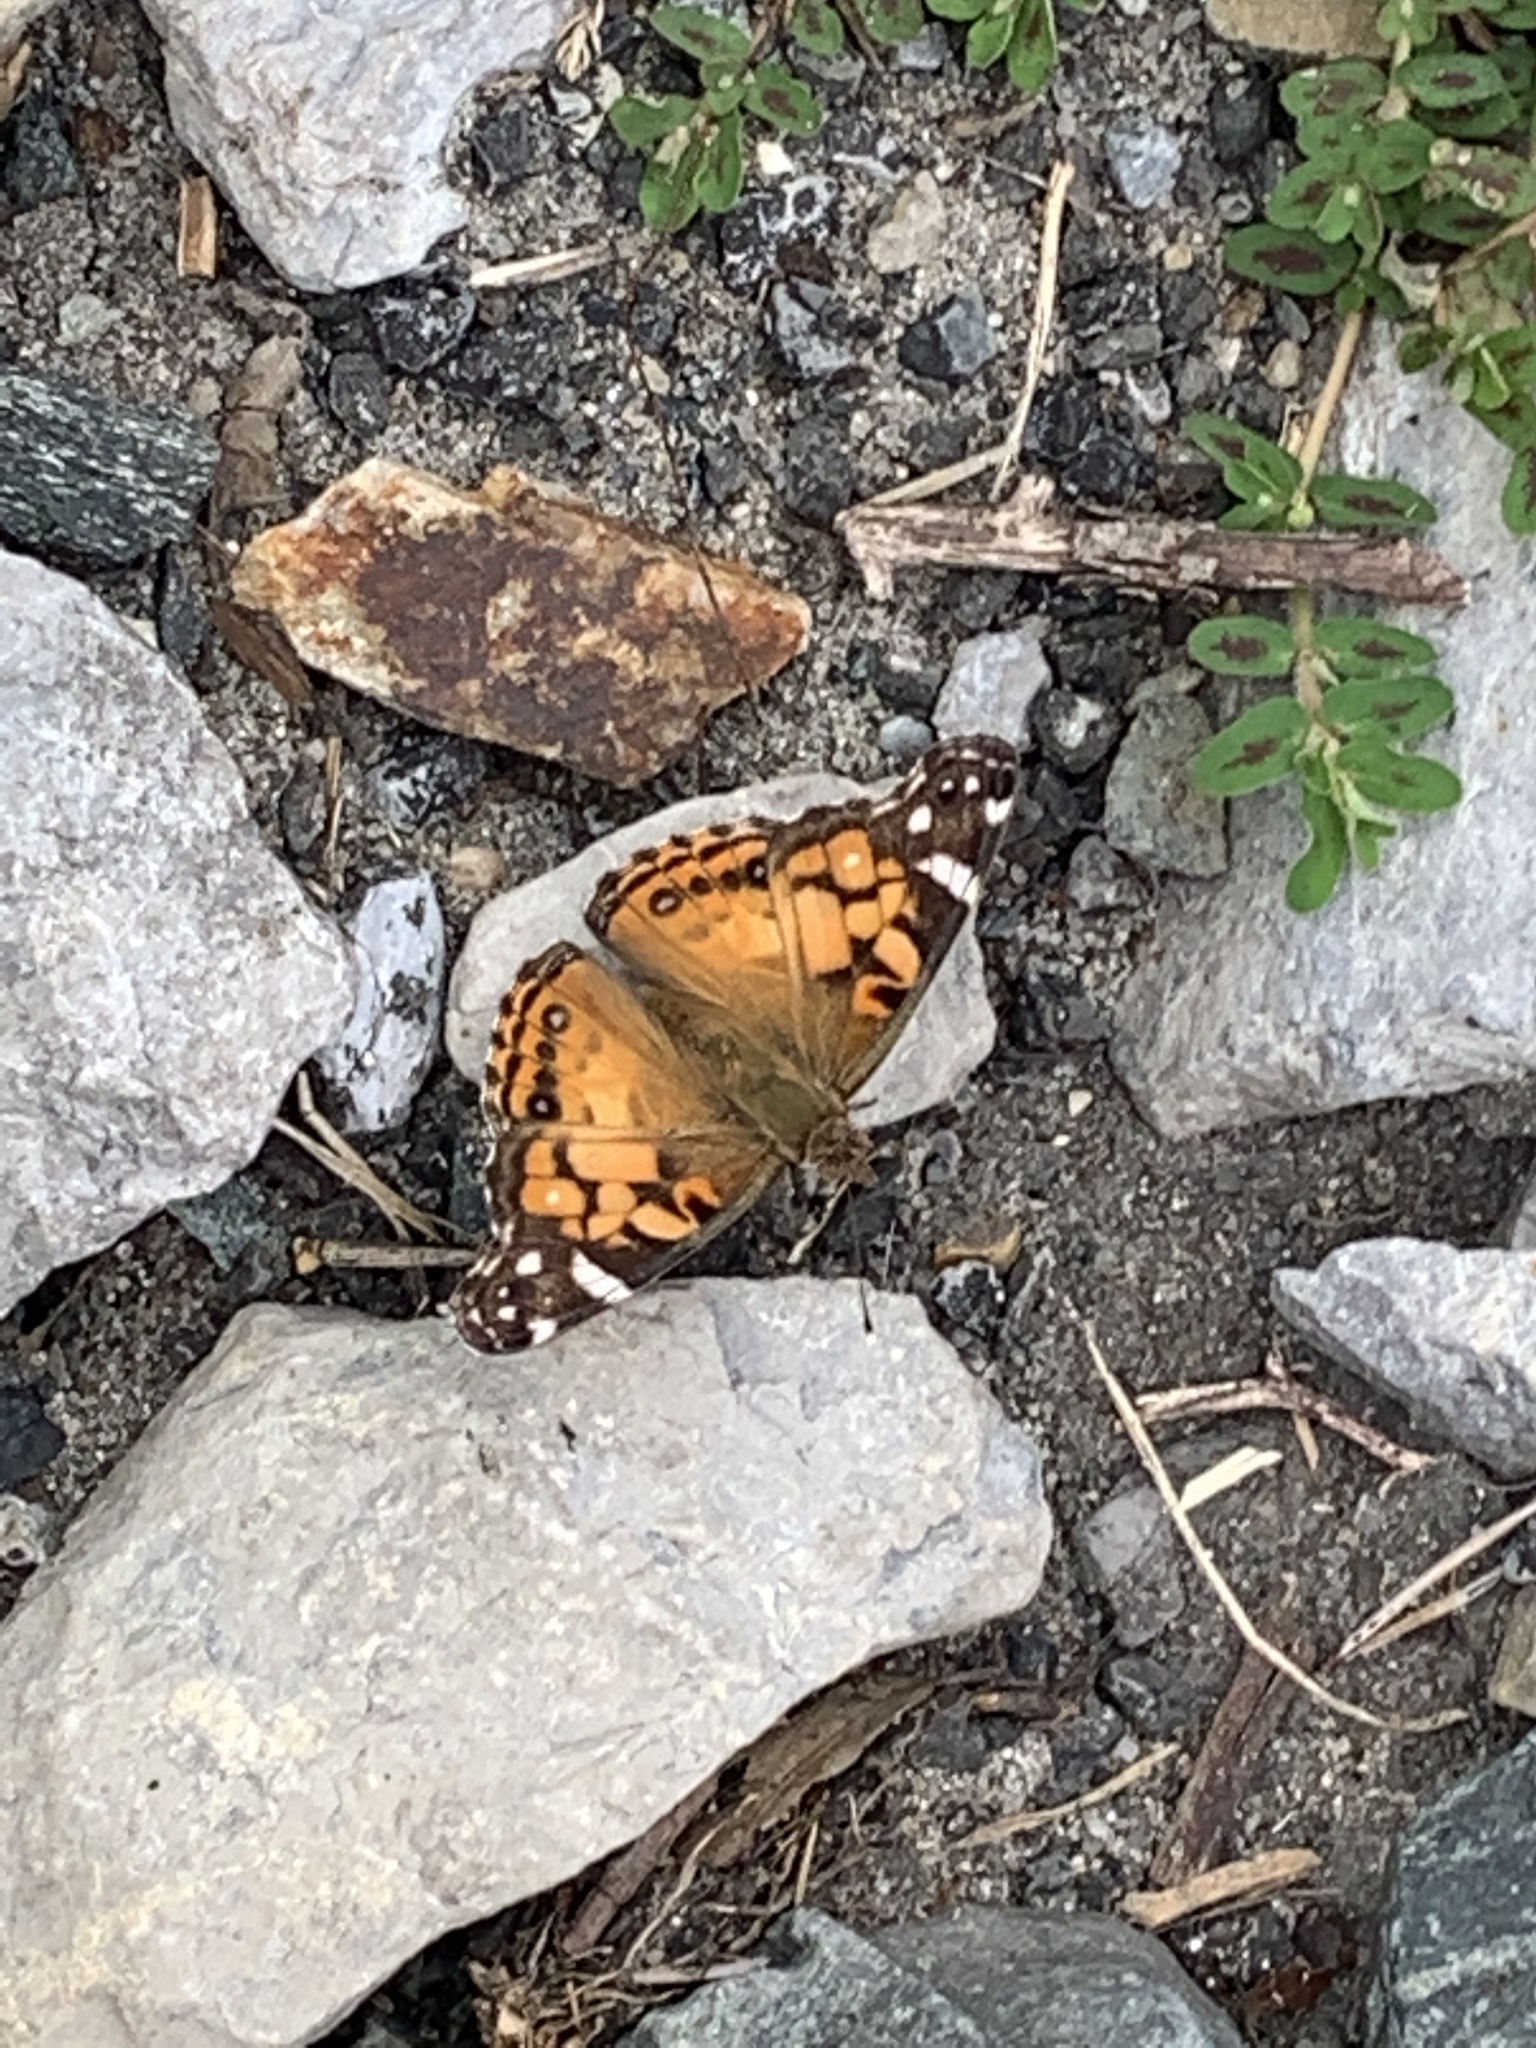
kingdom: Animalia
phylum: Arthropoda
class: Insecta
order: Lepidoptera
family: Nymphalidae
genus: Vanessa
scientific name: Vanessa virginiensis
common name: American lady
